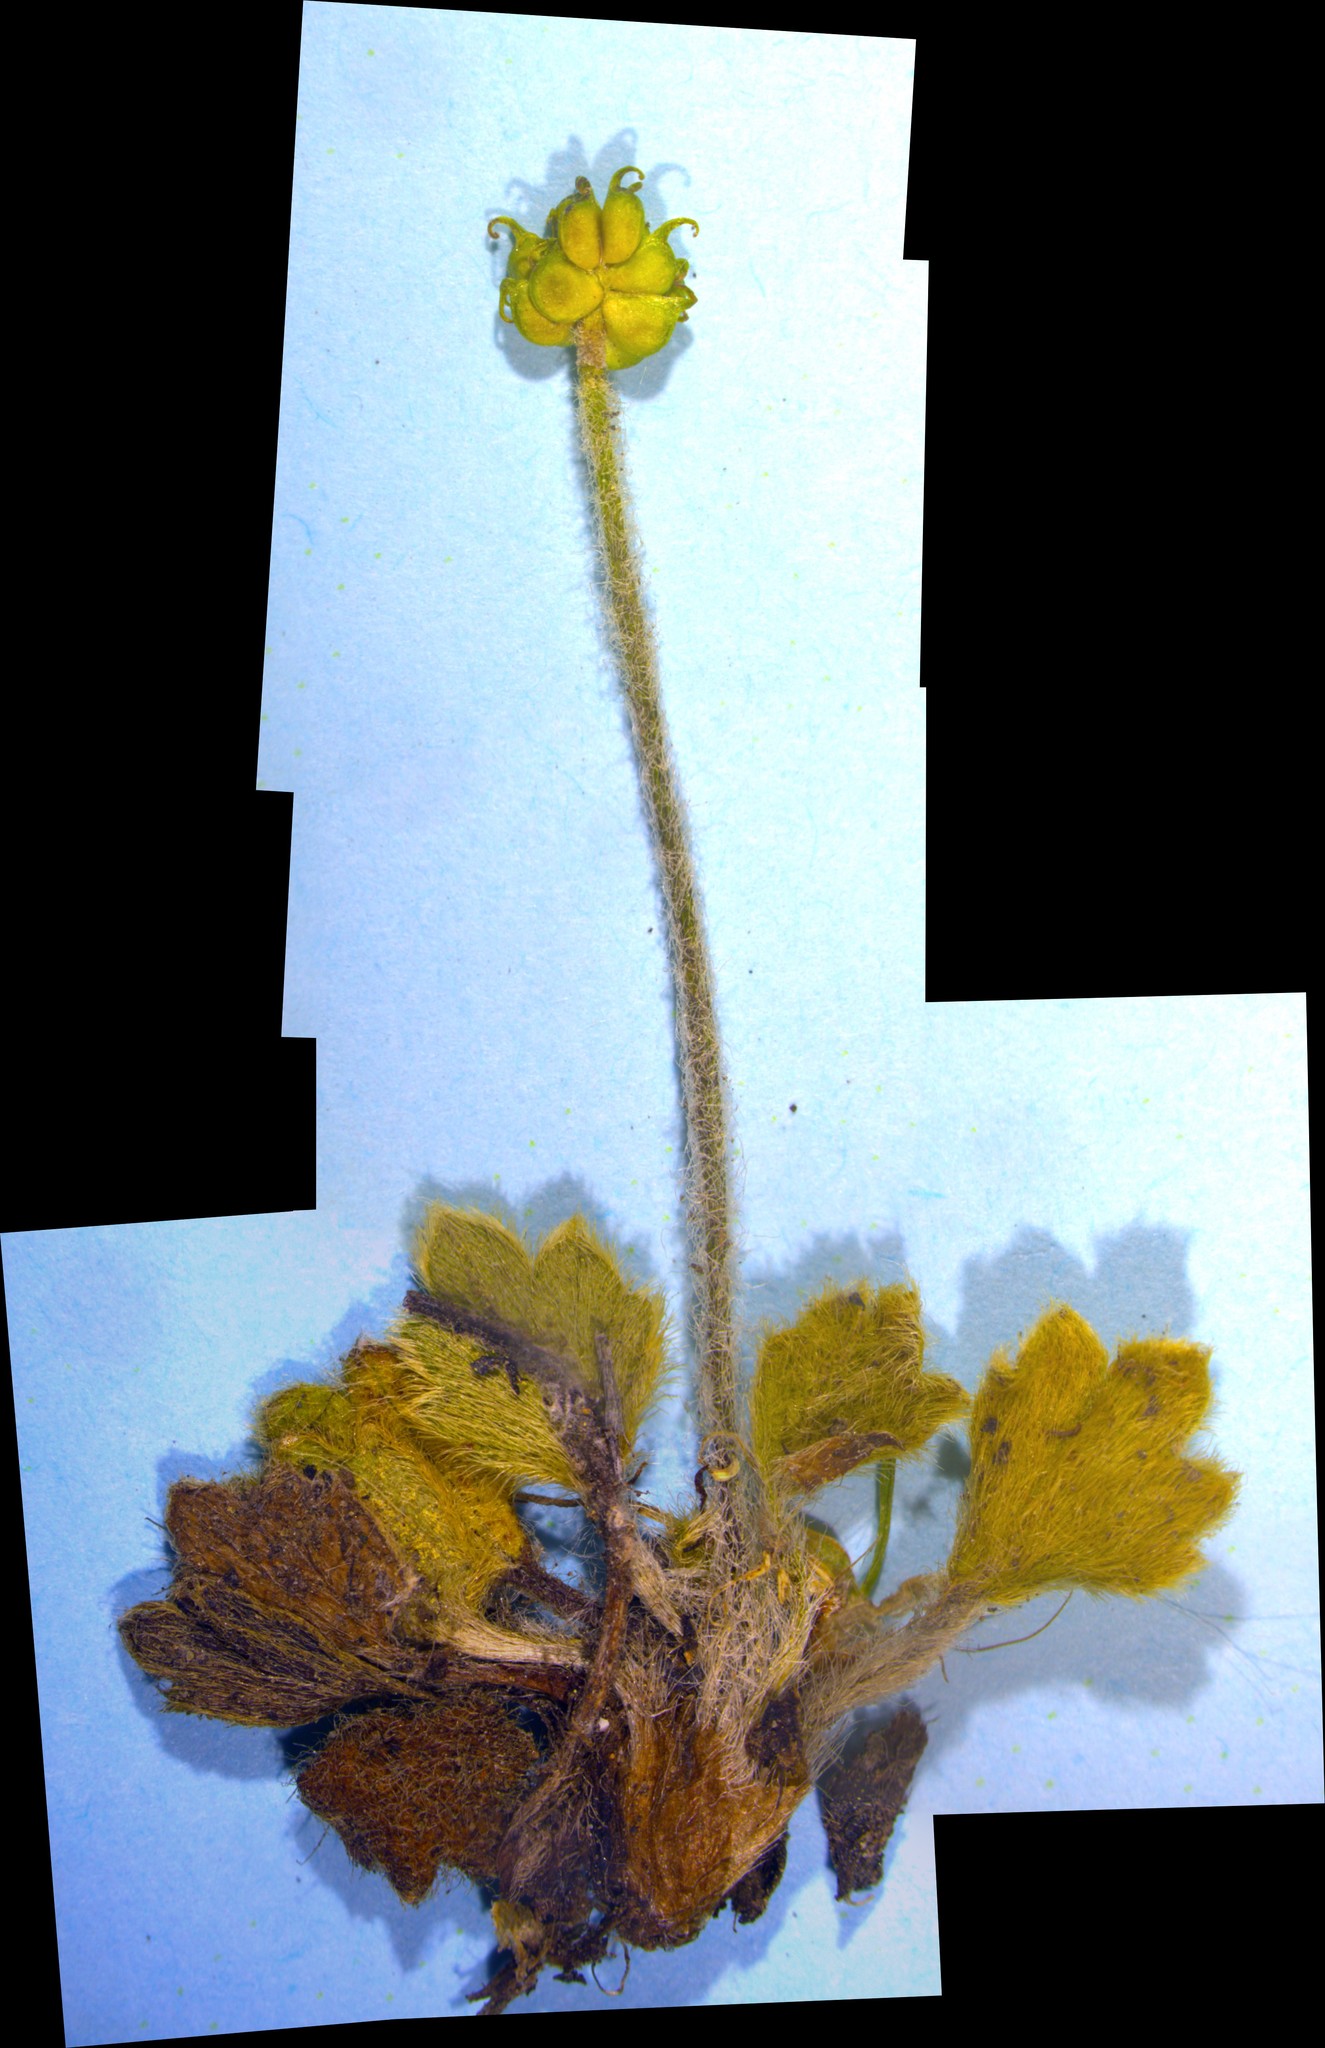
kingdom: Plantae
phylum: Tracheophyta
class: Magnoliopsida
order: Ranunculales
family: Ranunculaceae
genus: Ranunculus
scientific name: Ranunculus multiscapus
